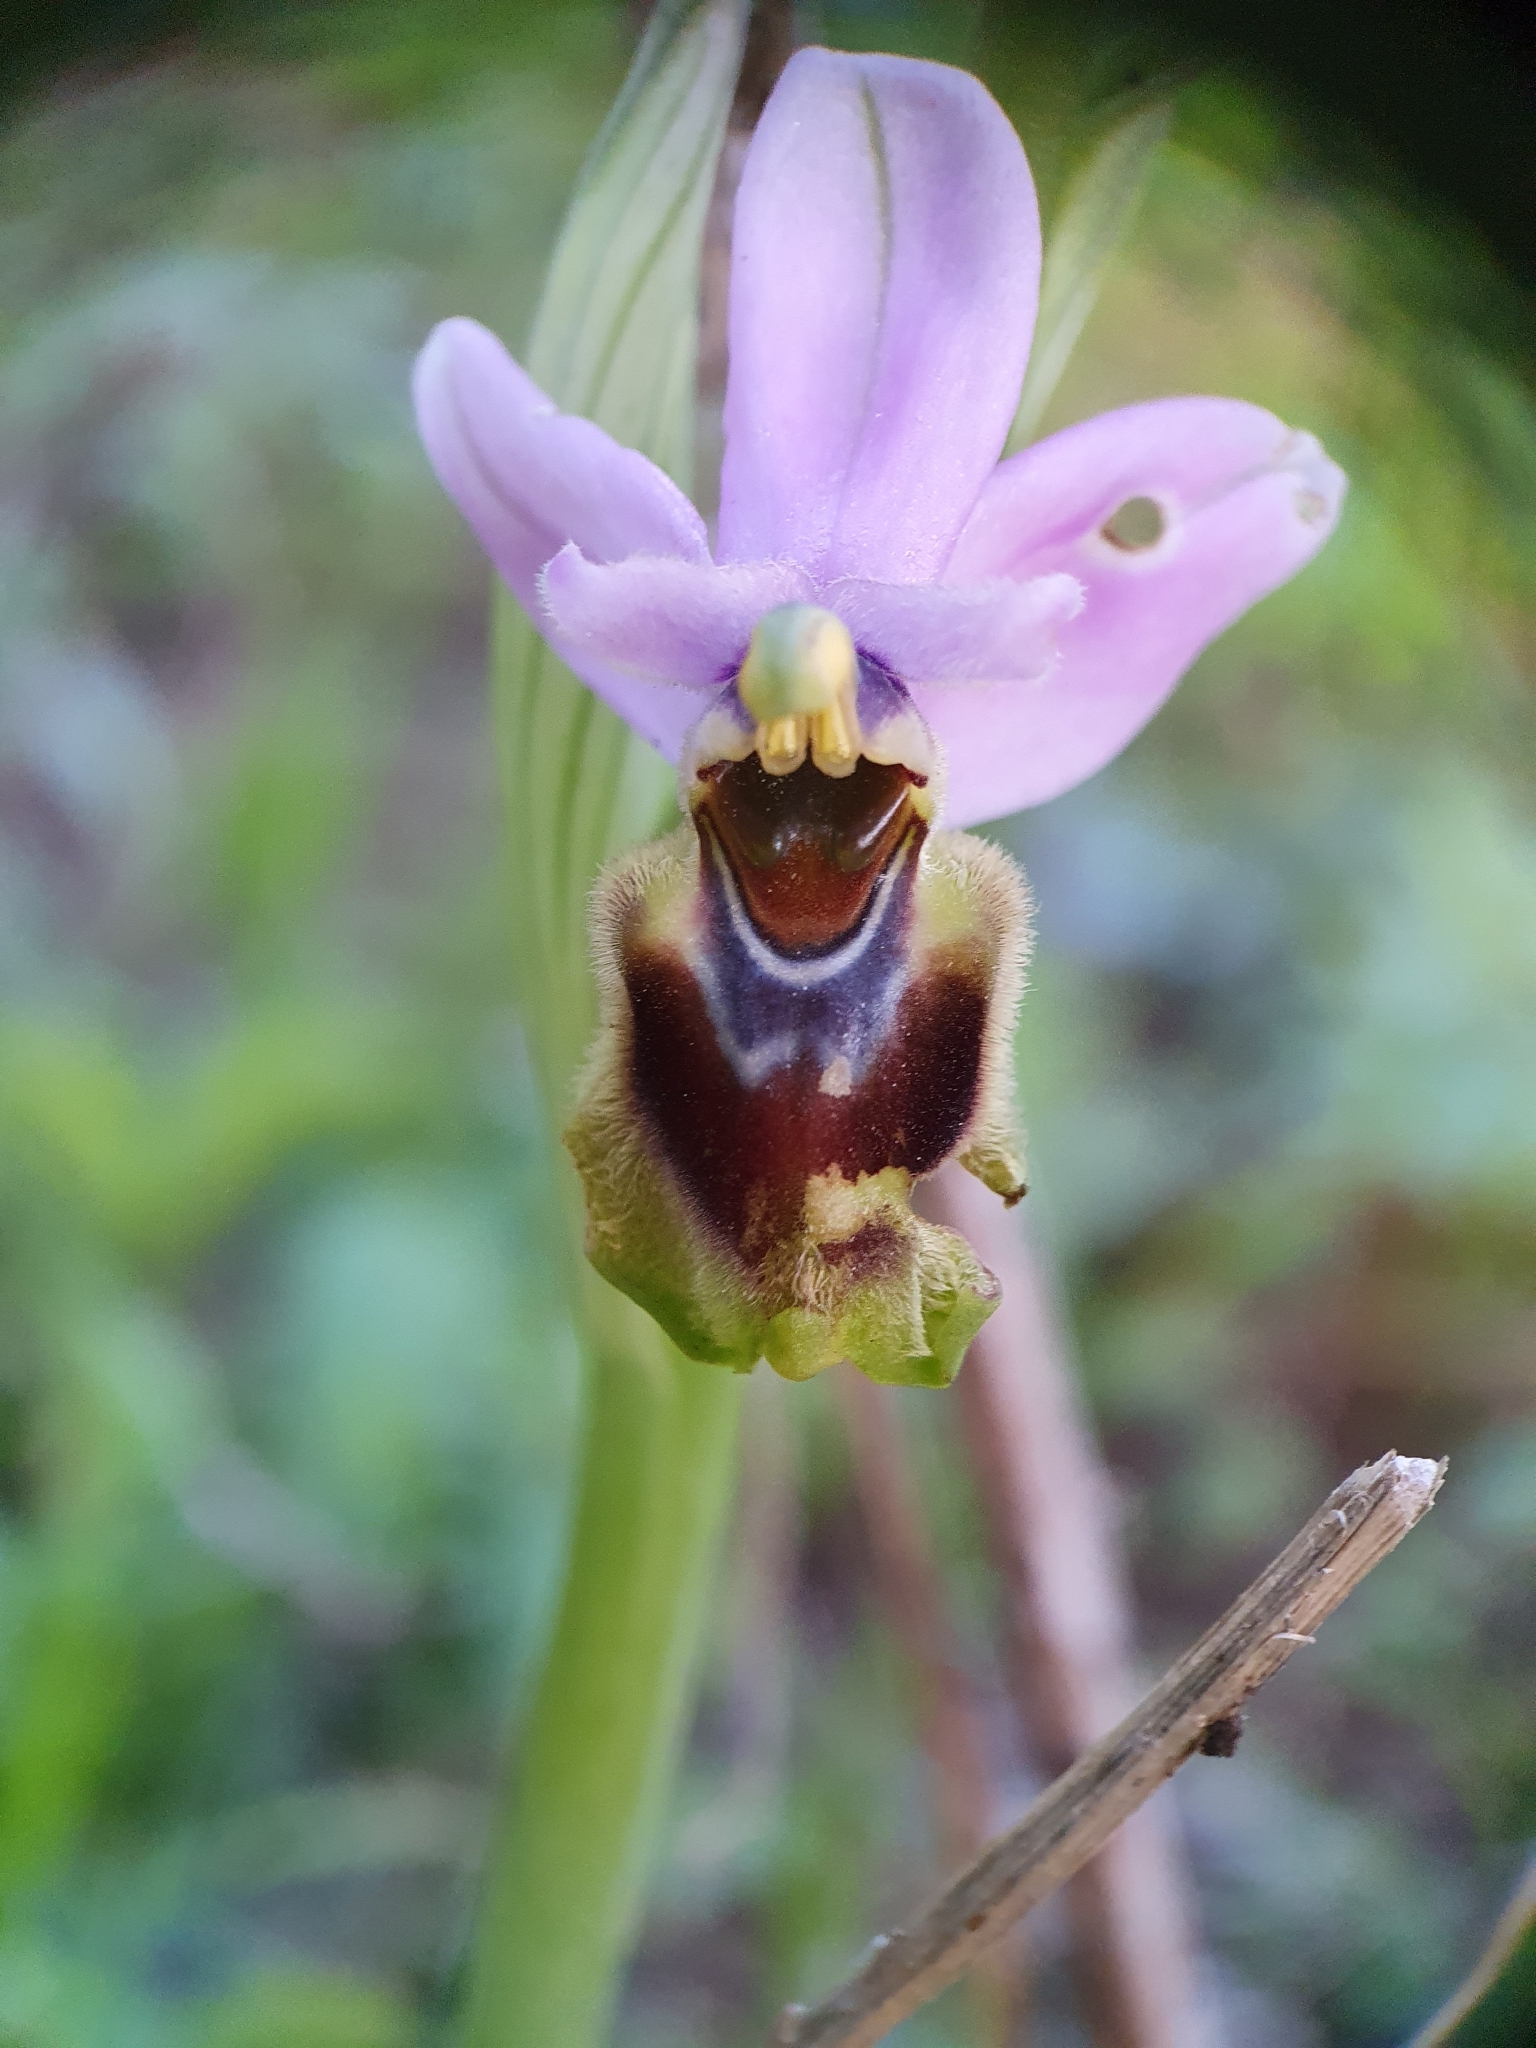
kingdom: Plantae
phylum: Tracheophyta
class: Liliopsida
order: Asparagales
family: Orchidaceae
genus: Ophrys
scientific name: Ophrys tenthredinifera
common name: Sawfly orchid
